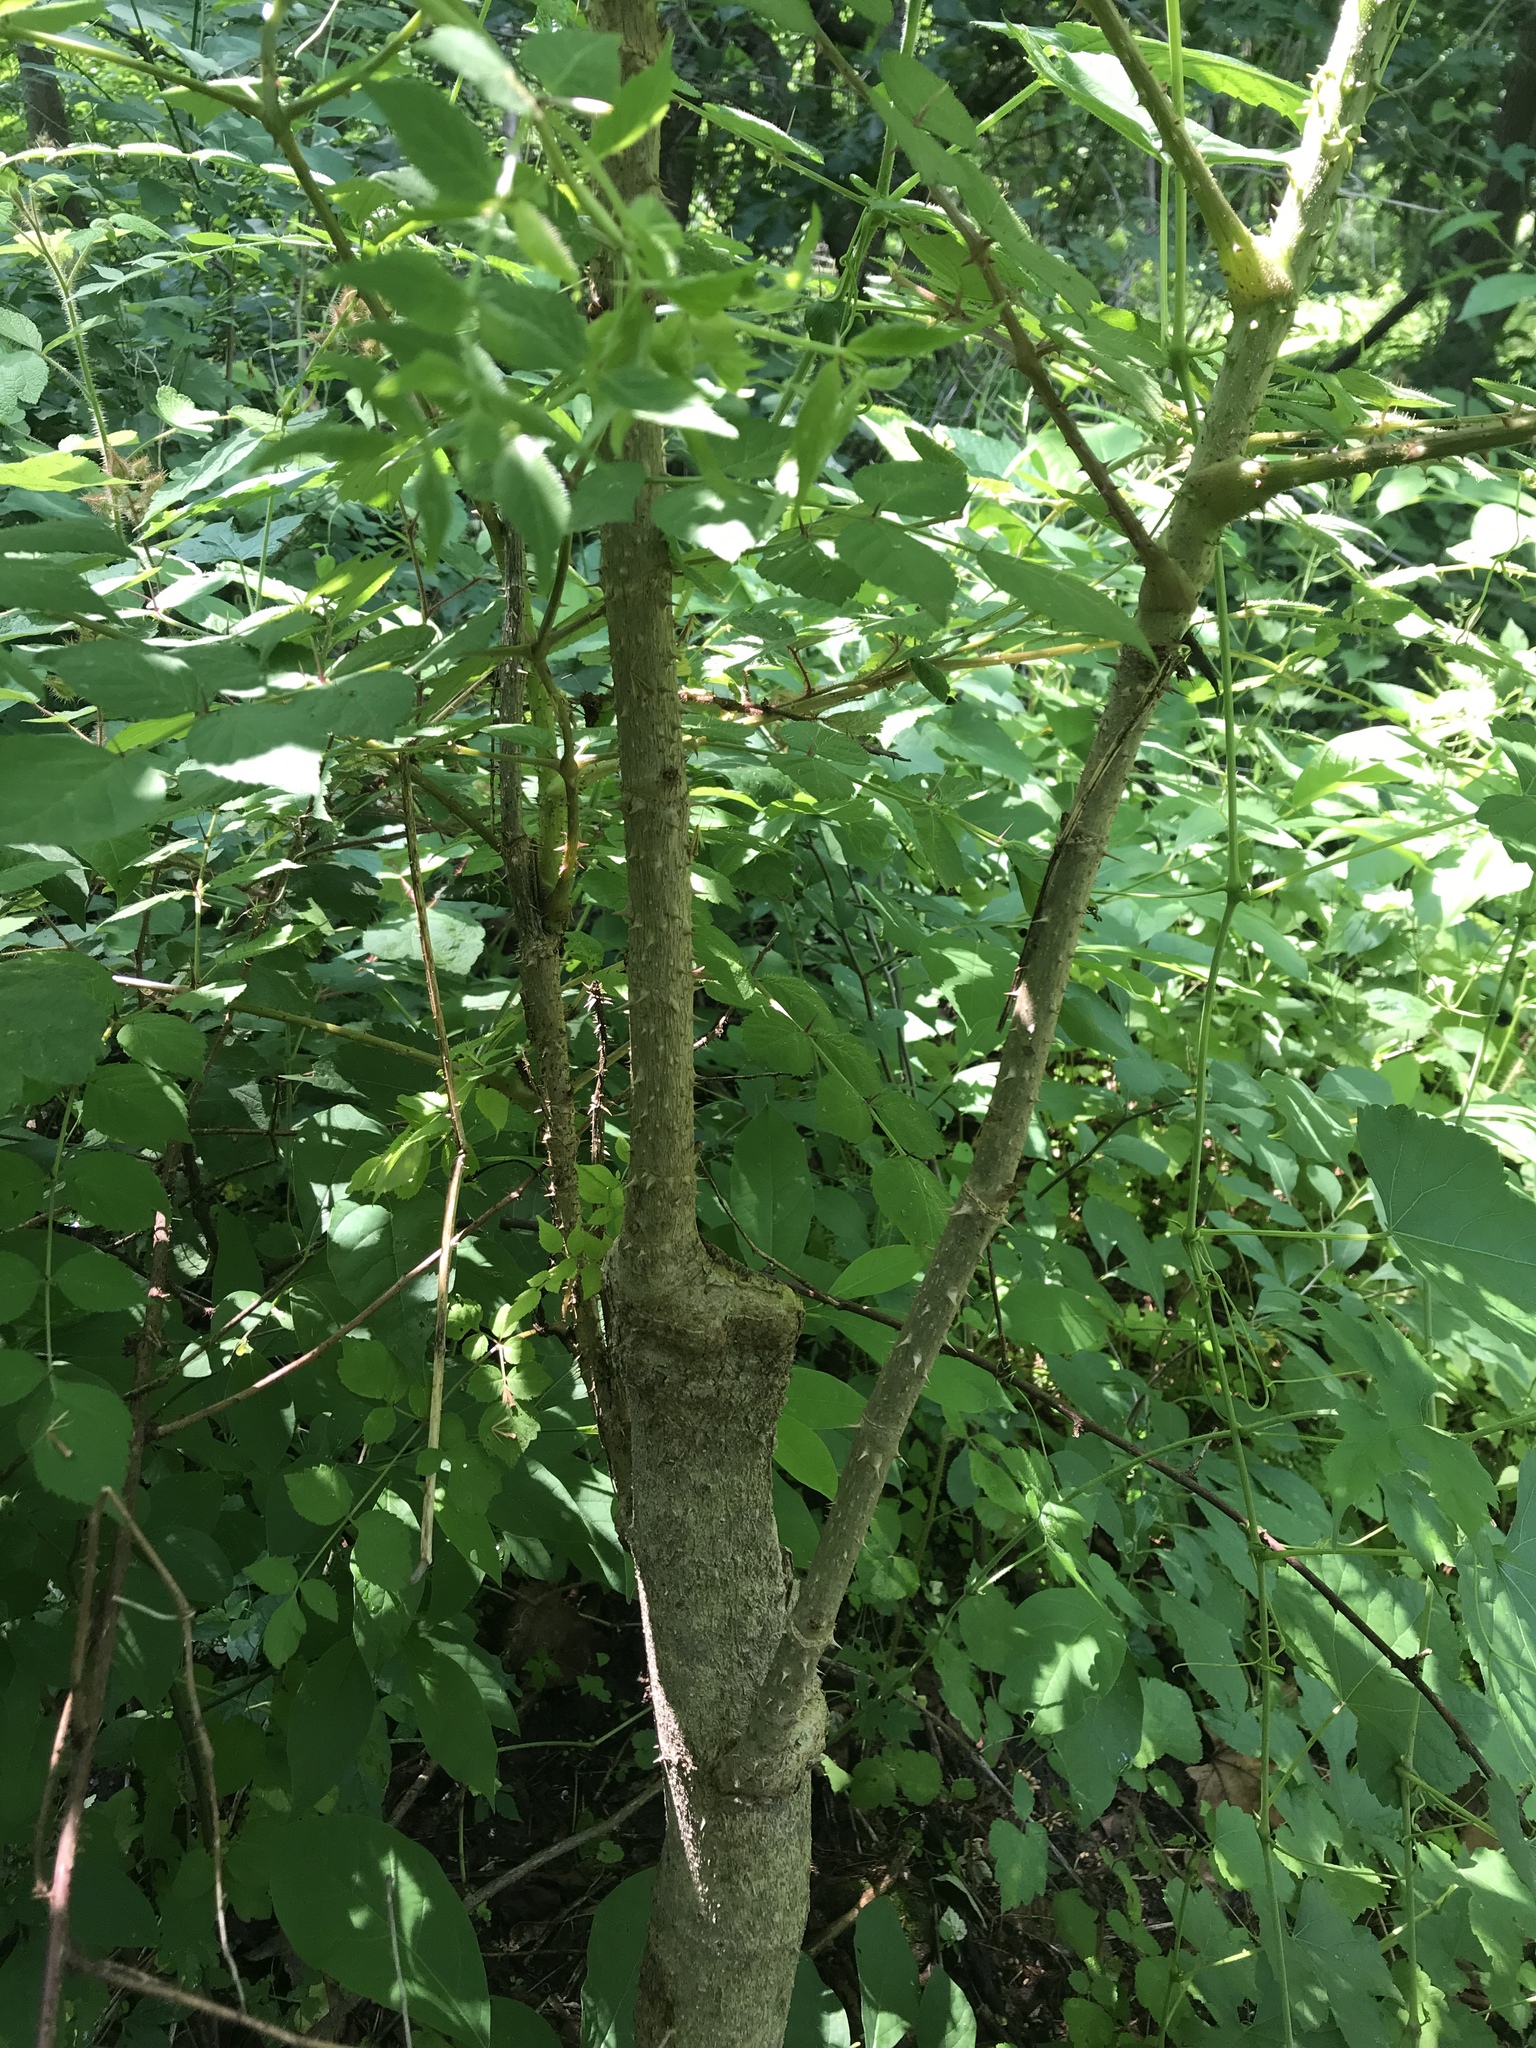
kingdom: Plantae
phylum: Tracheophyta
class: Magnoliopsida
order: Apiales
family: Araliaceae
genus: Aralia
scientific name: Aralia elata
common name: Japanese angelica-tree
